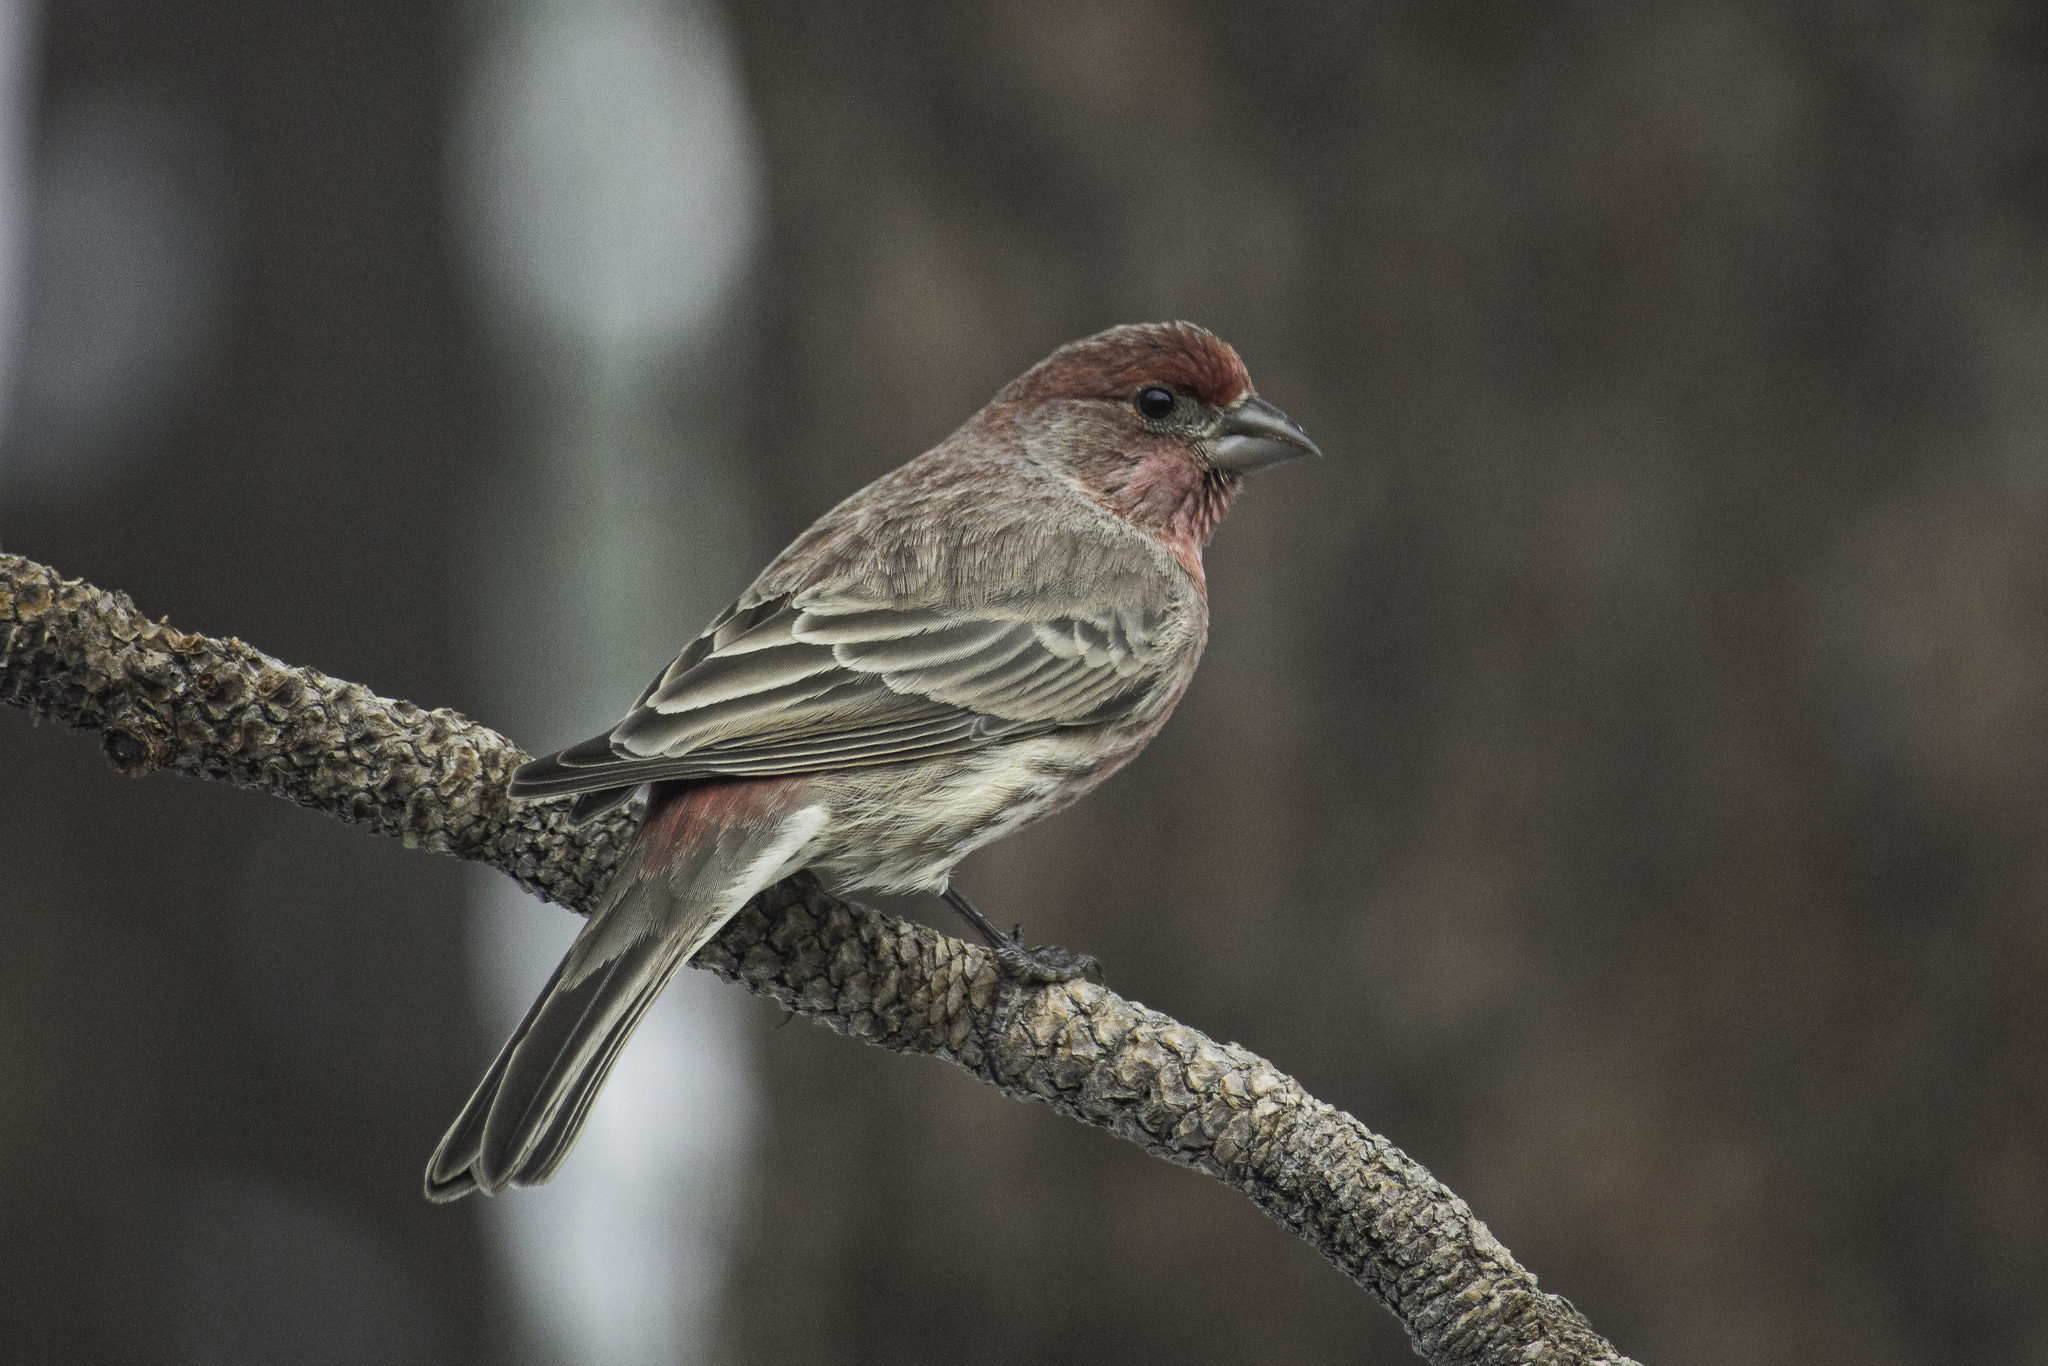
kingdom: Animalia
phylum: Chordata
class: Aves
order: Passeriformes
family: Fringillidae
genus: Haemorhous
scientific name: Haemorhous mexicanus
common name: House finch
